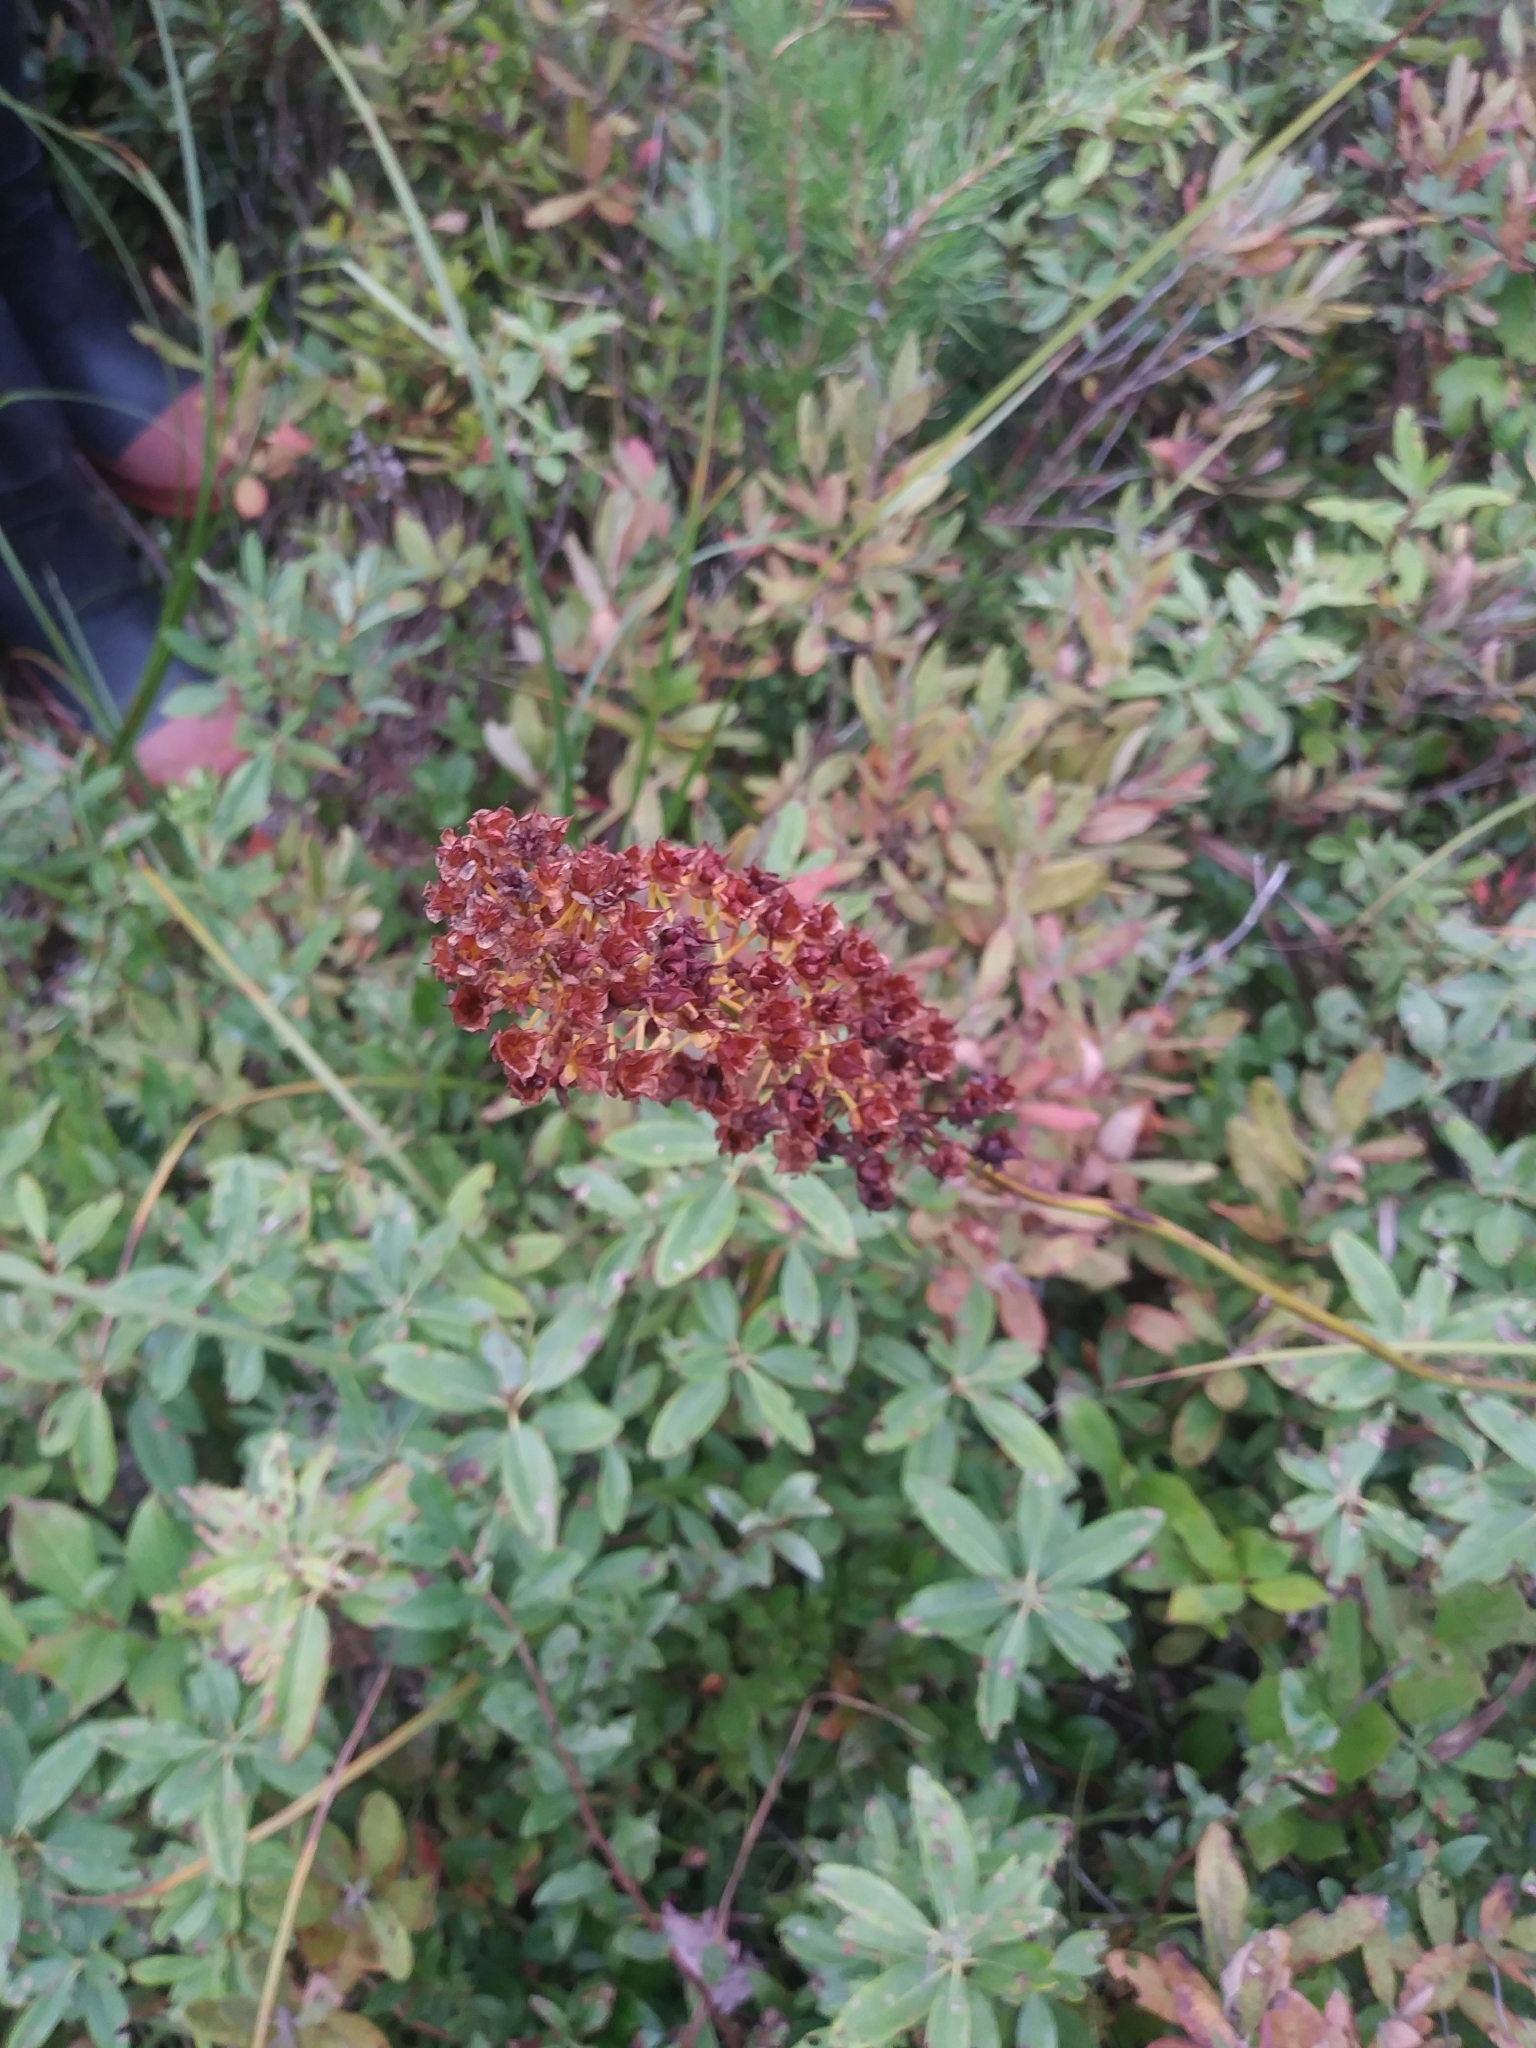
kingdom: Plantae
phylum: Tracheophyta
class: Liliopsida
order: Liliales
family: Melanthiaceae
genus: Amianthium
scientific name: Amianthium muscitoxicum
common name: Fly-poison
